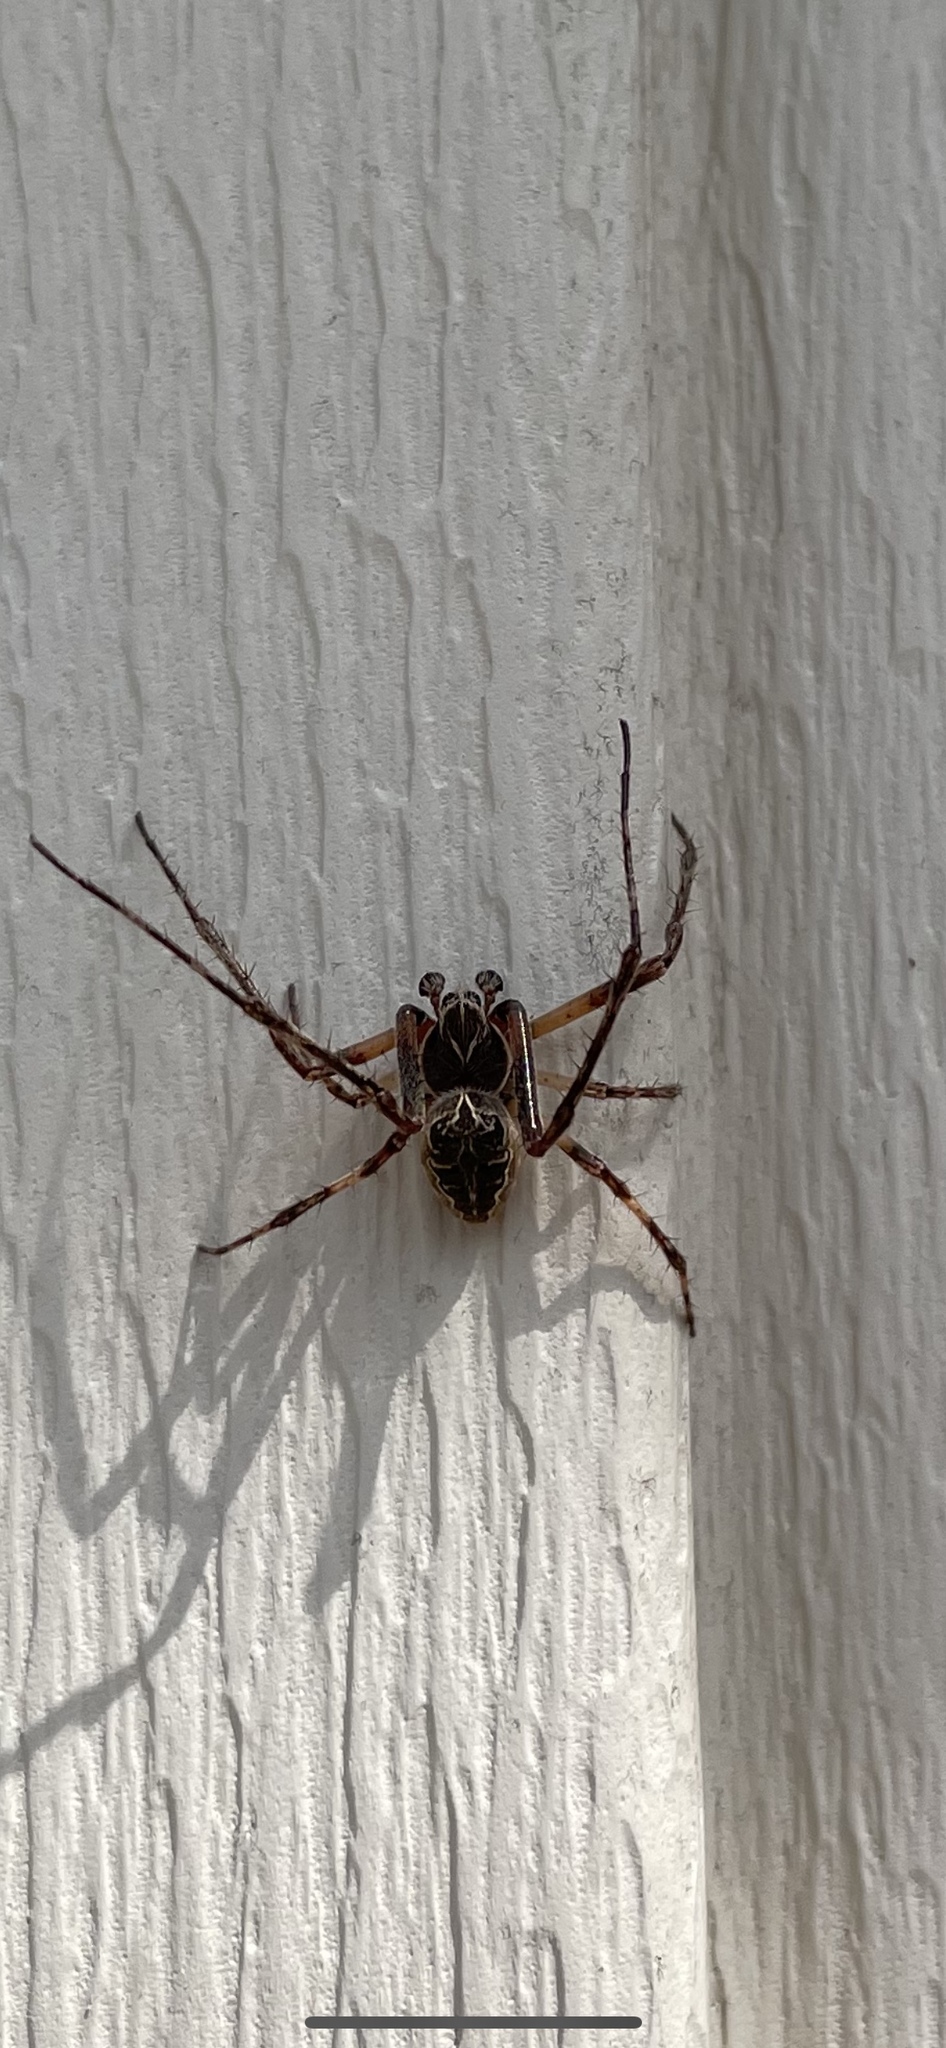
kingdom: Animalia
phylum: Arthropoda
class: Arachnida
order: Araneae
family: Araneidae
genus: Larinioides
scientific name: Larinioides sclopetarius
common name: Bridge orbweaver
